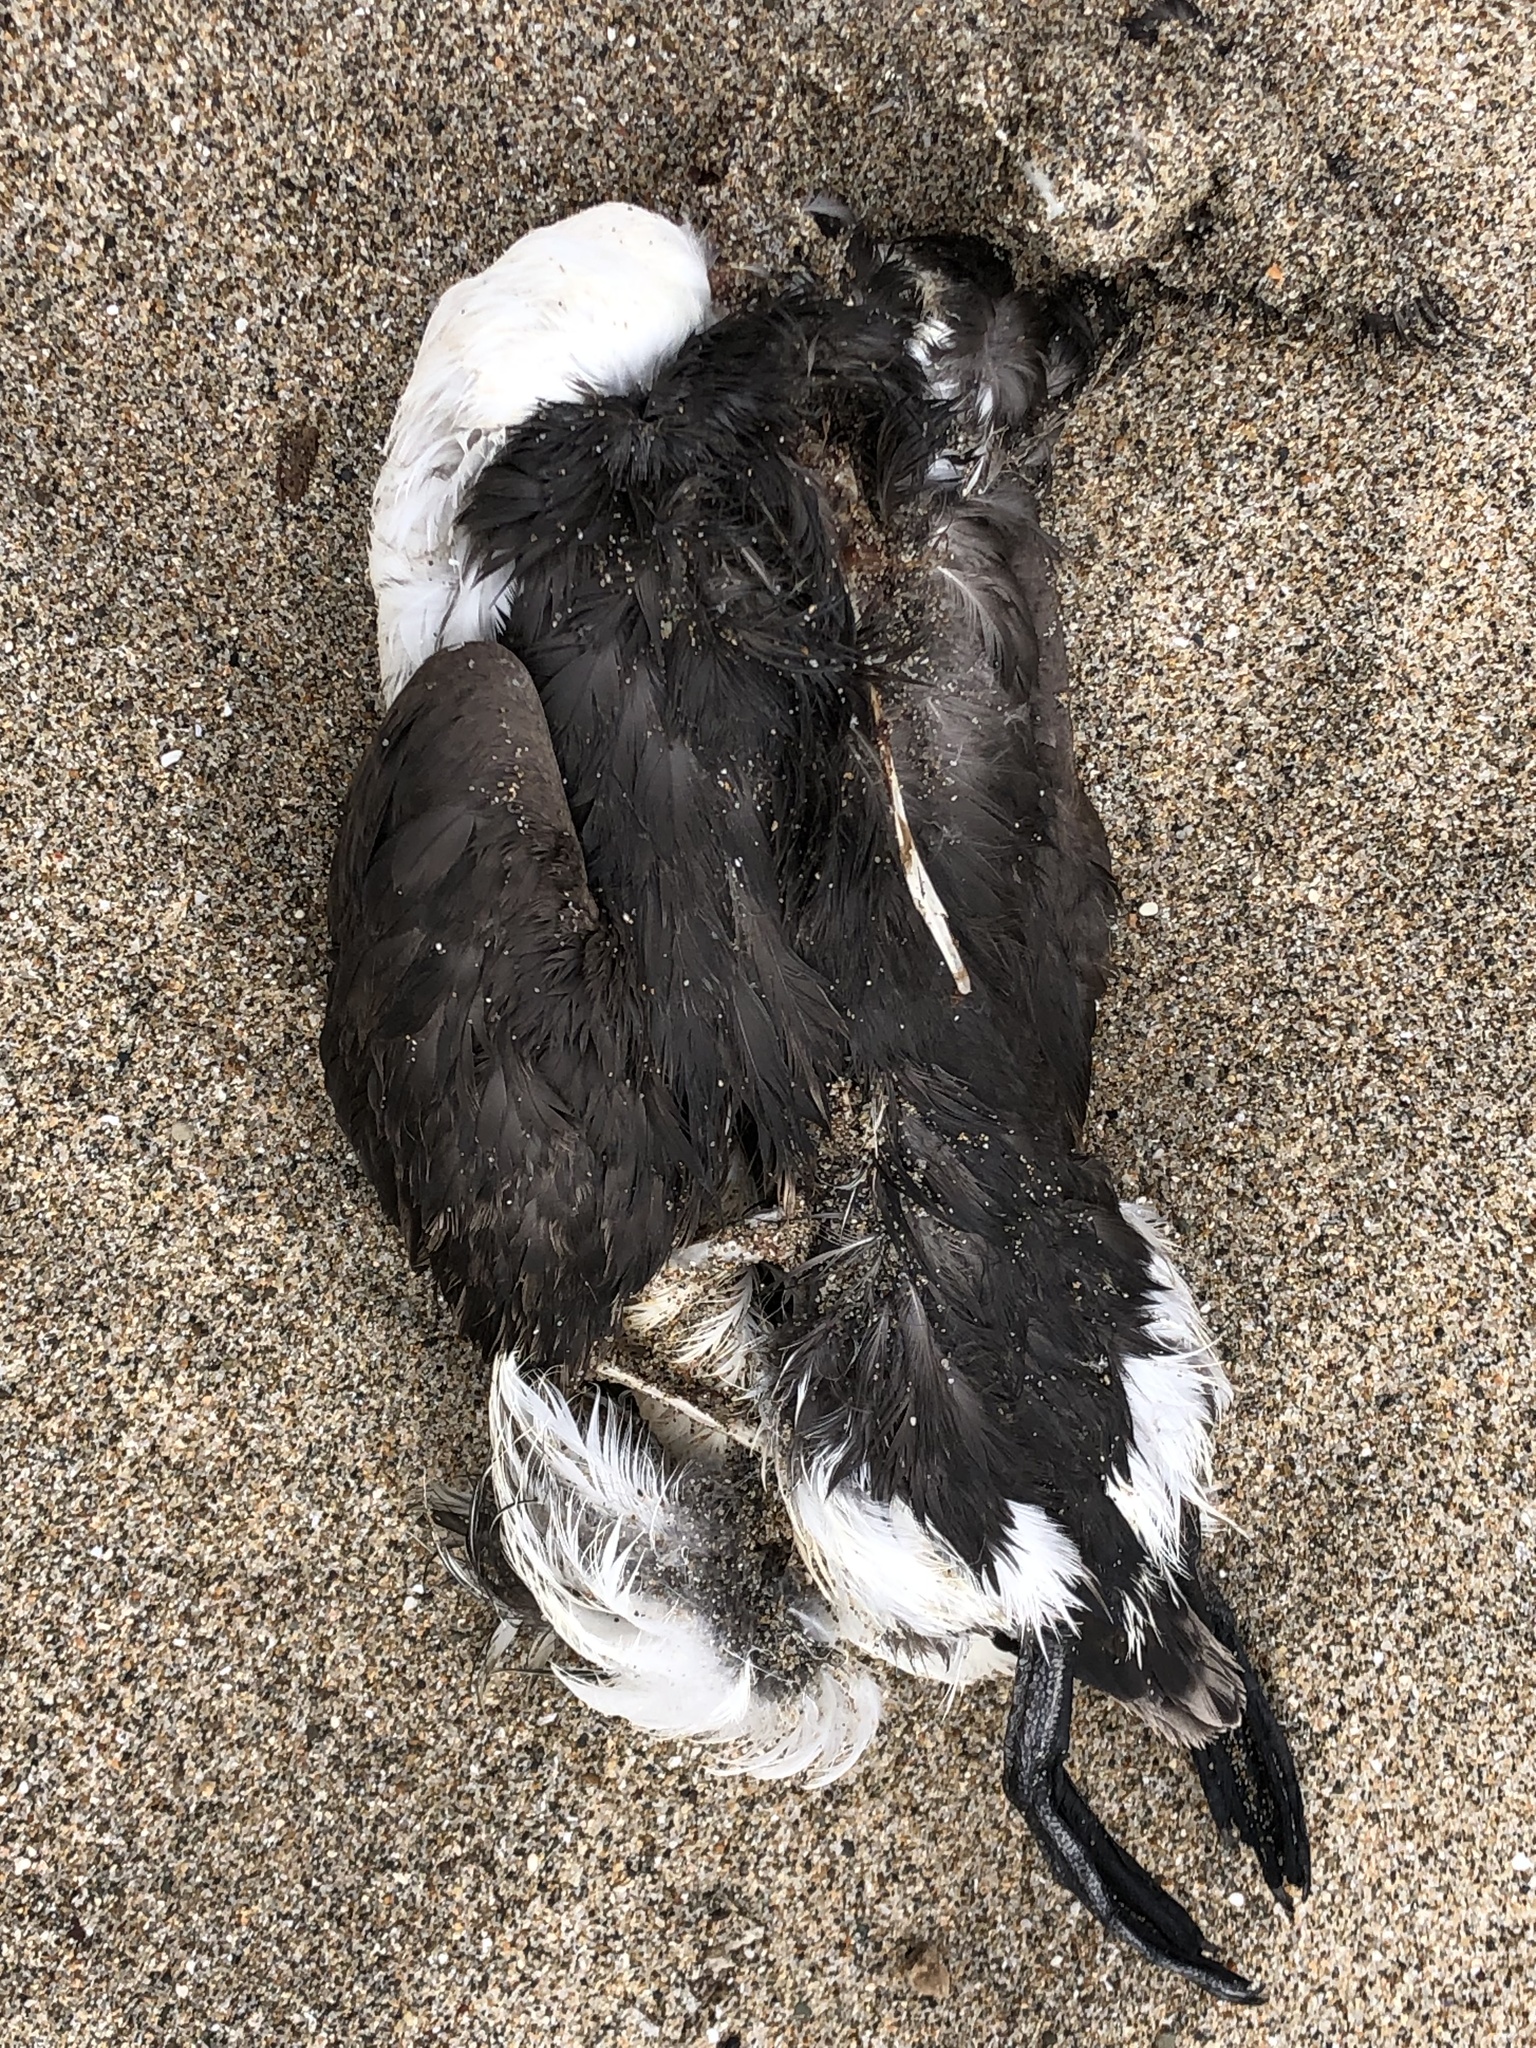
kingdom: Animalia
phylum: Chordata
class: Aves
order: Charadriiformes
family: Alcidae
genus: Uria
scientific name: Uria aalge
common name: Common murre
